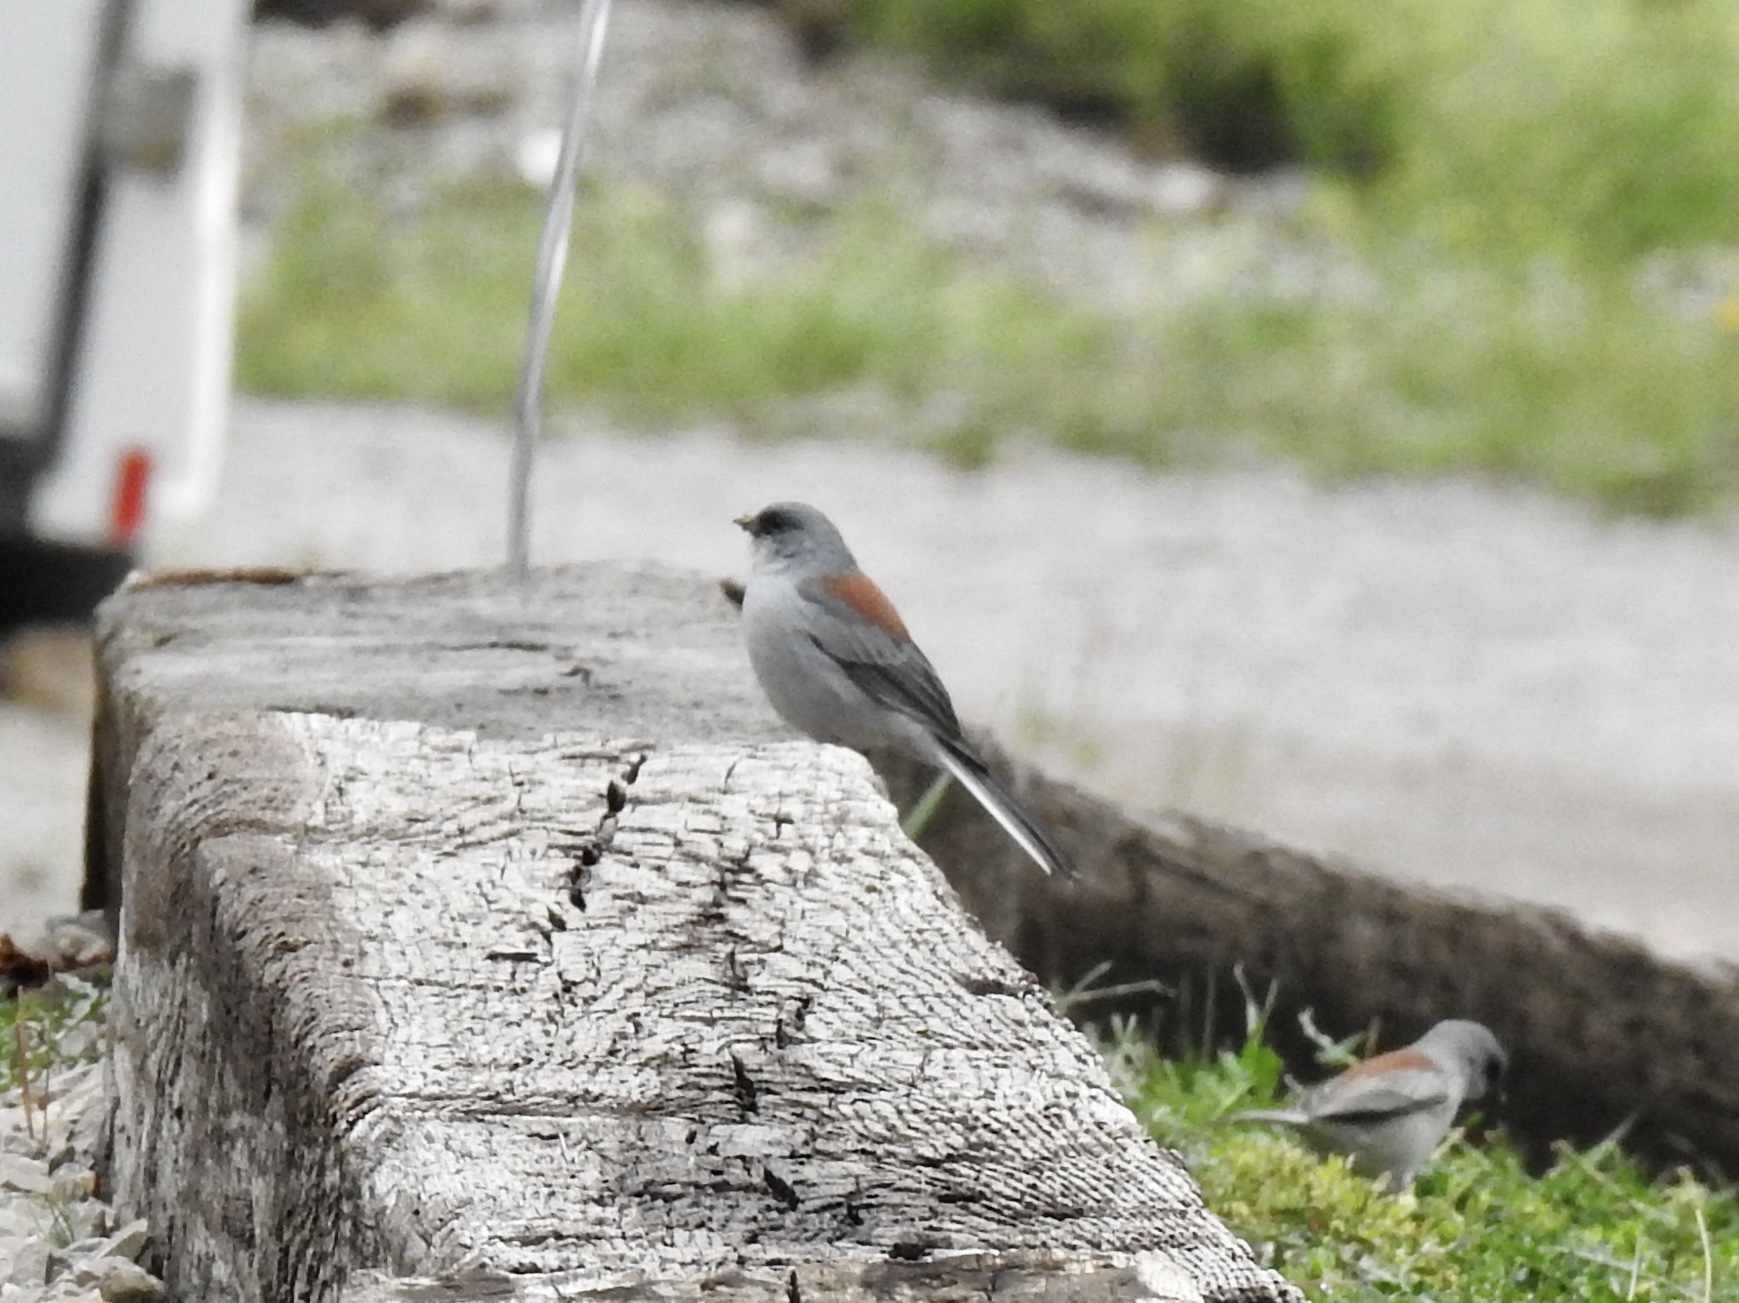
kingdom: Animalia
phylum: Chordata
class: Aves
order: Passeriformes
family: Passerellidae
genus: Junco
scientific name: Junco hyemalis
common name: Dark-eyed junco
